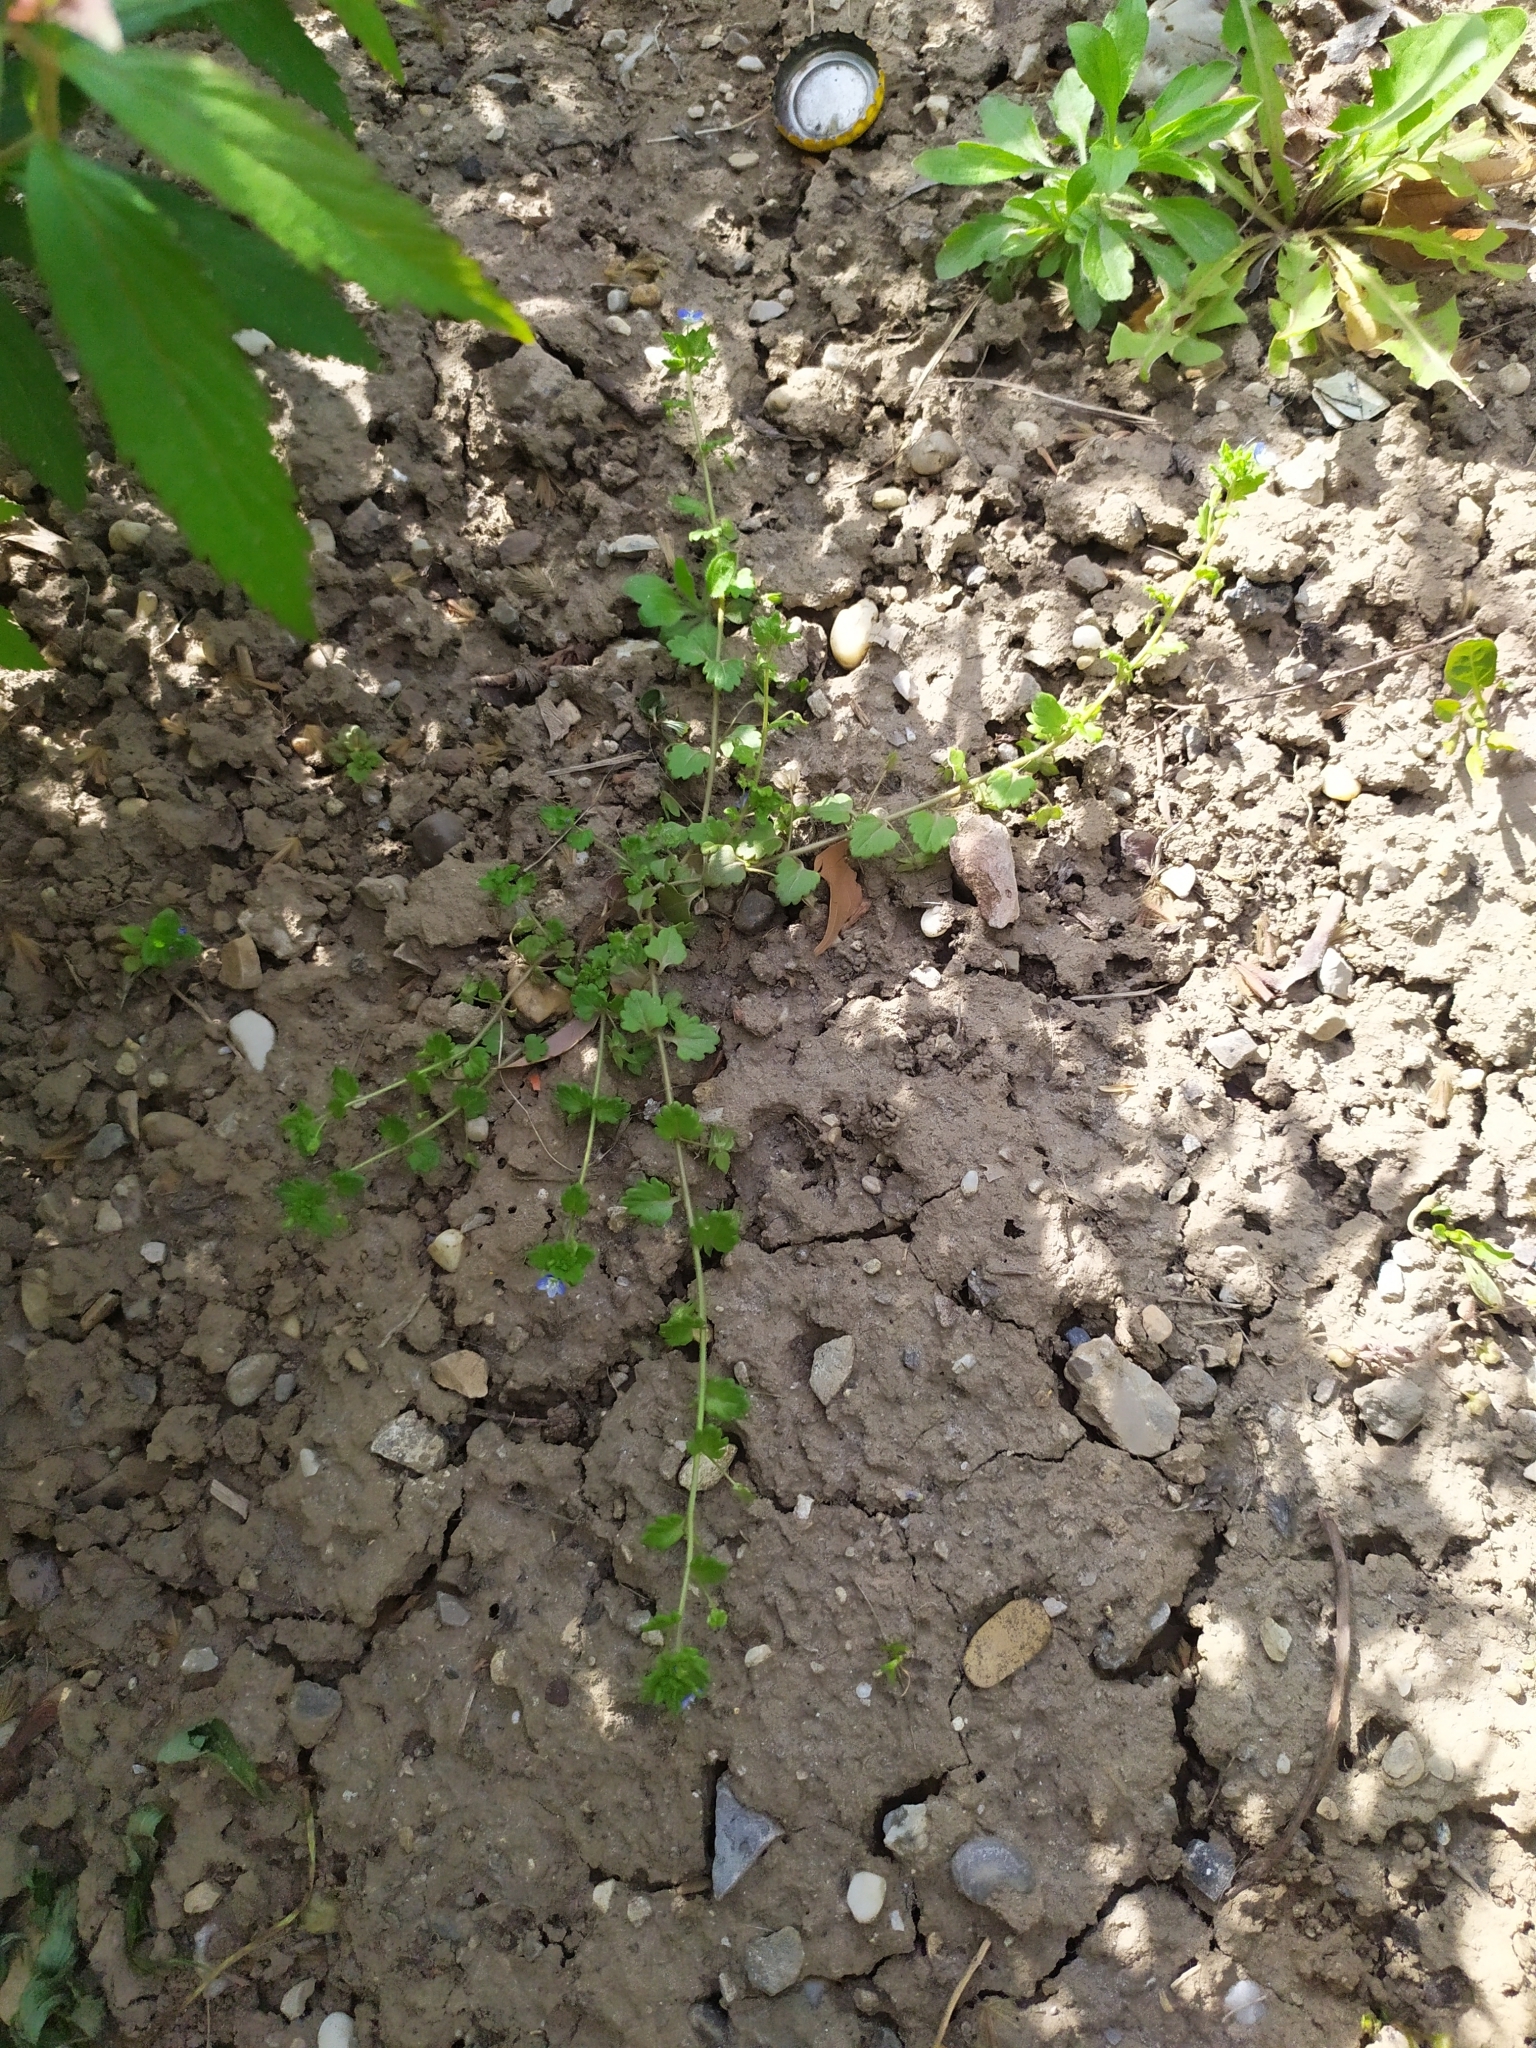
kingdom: Plantae
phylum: Tracheophyta
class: Magnoliopsida
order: Lamiales
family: Plantaginaceae
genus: Veronica
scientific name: Veronica polita
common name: Grey field-speedwell
